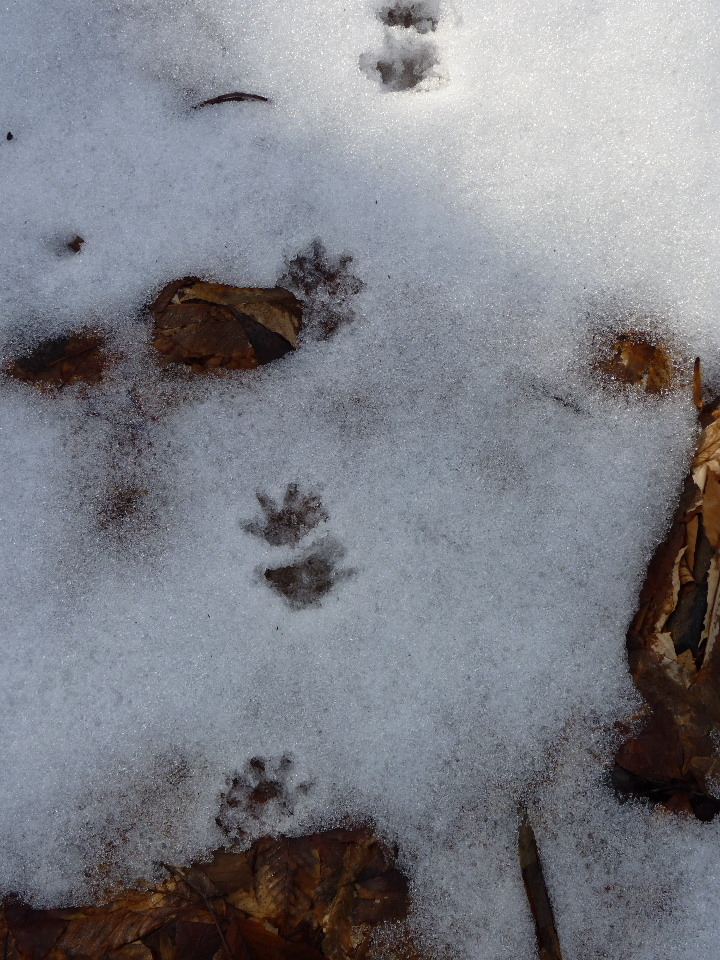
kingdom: Animalia
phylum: Chordata
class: Mammalia
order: Didelphimorphia
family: Didelphidae
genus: Didelphis
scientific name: Didelphis virginiana
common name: Virginia opossum
